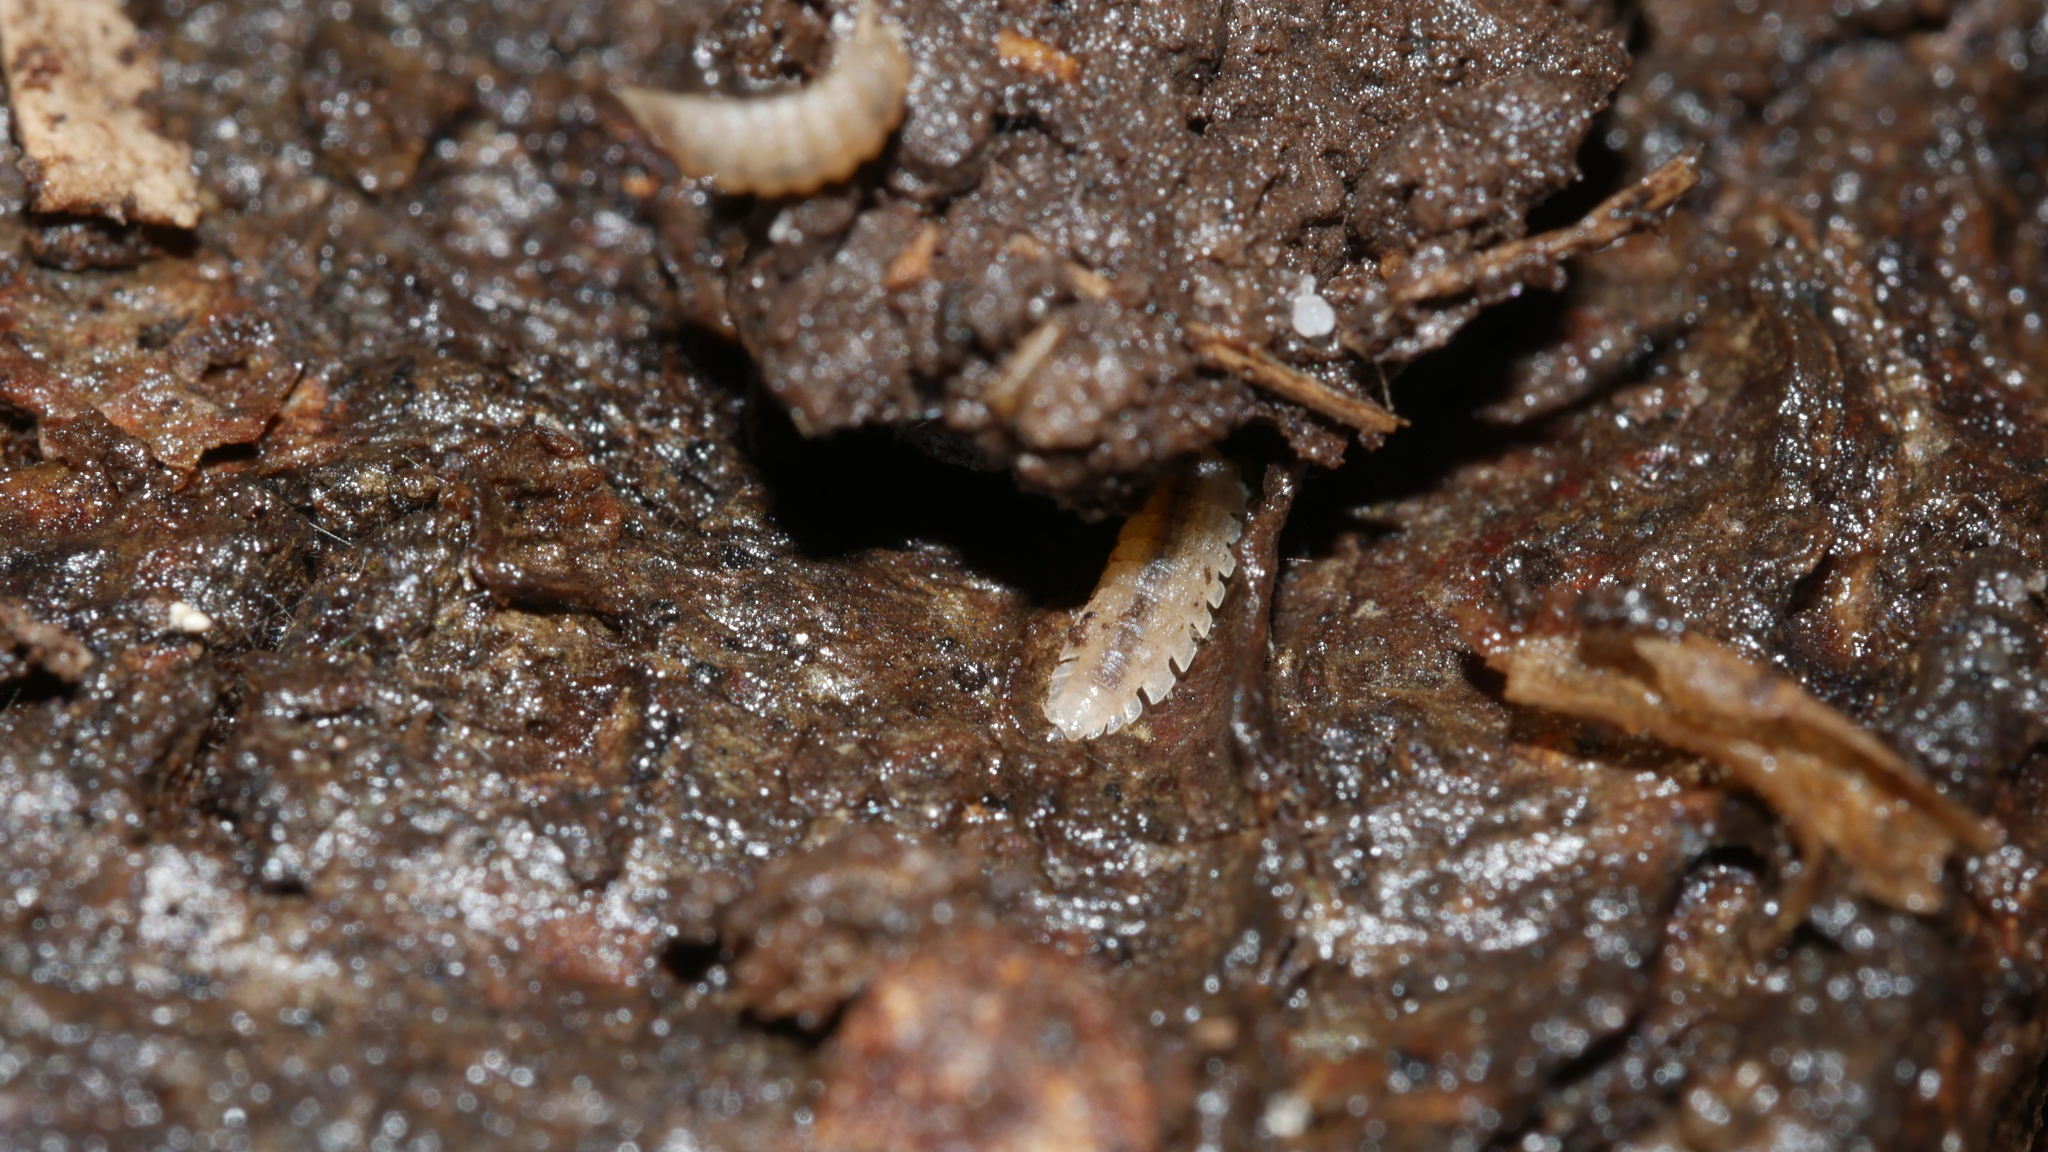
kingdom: Animalia
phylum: Arthropoda
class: Malacostraca
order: Isopoda
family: Trichoniscidae
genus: Haplophthalmus
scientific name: Haplophthalmus danicus
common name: Pillbug
